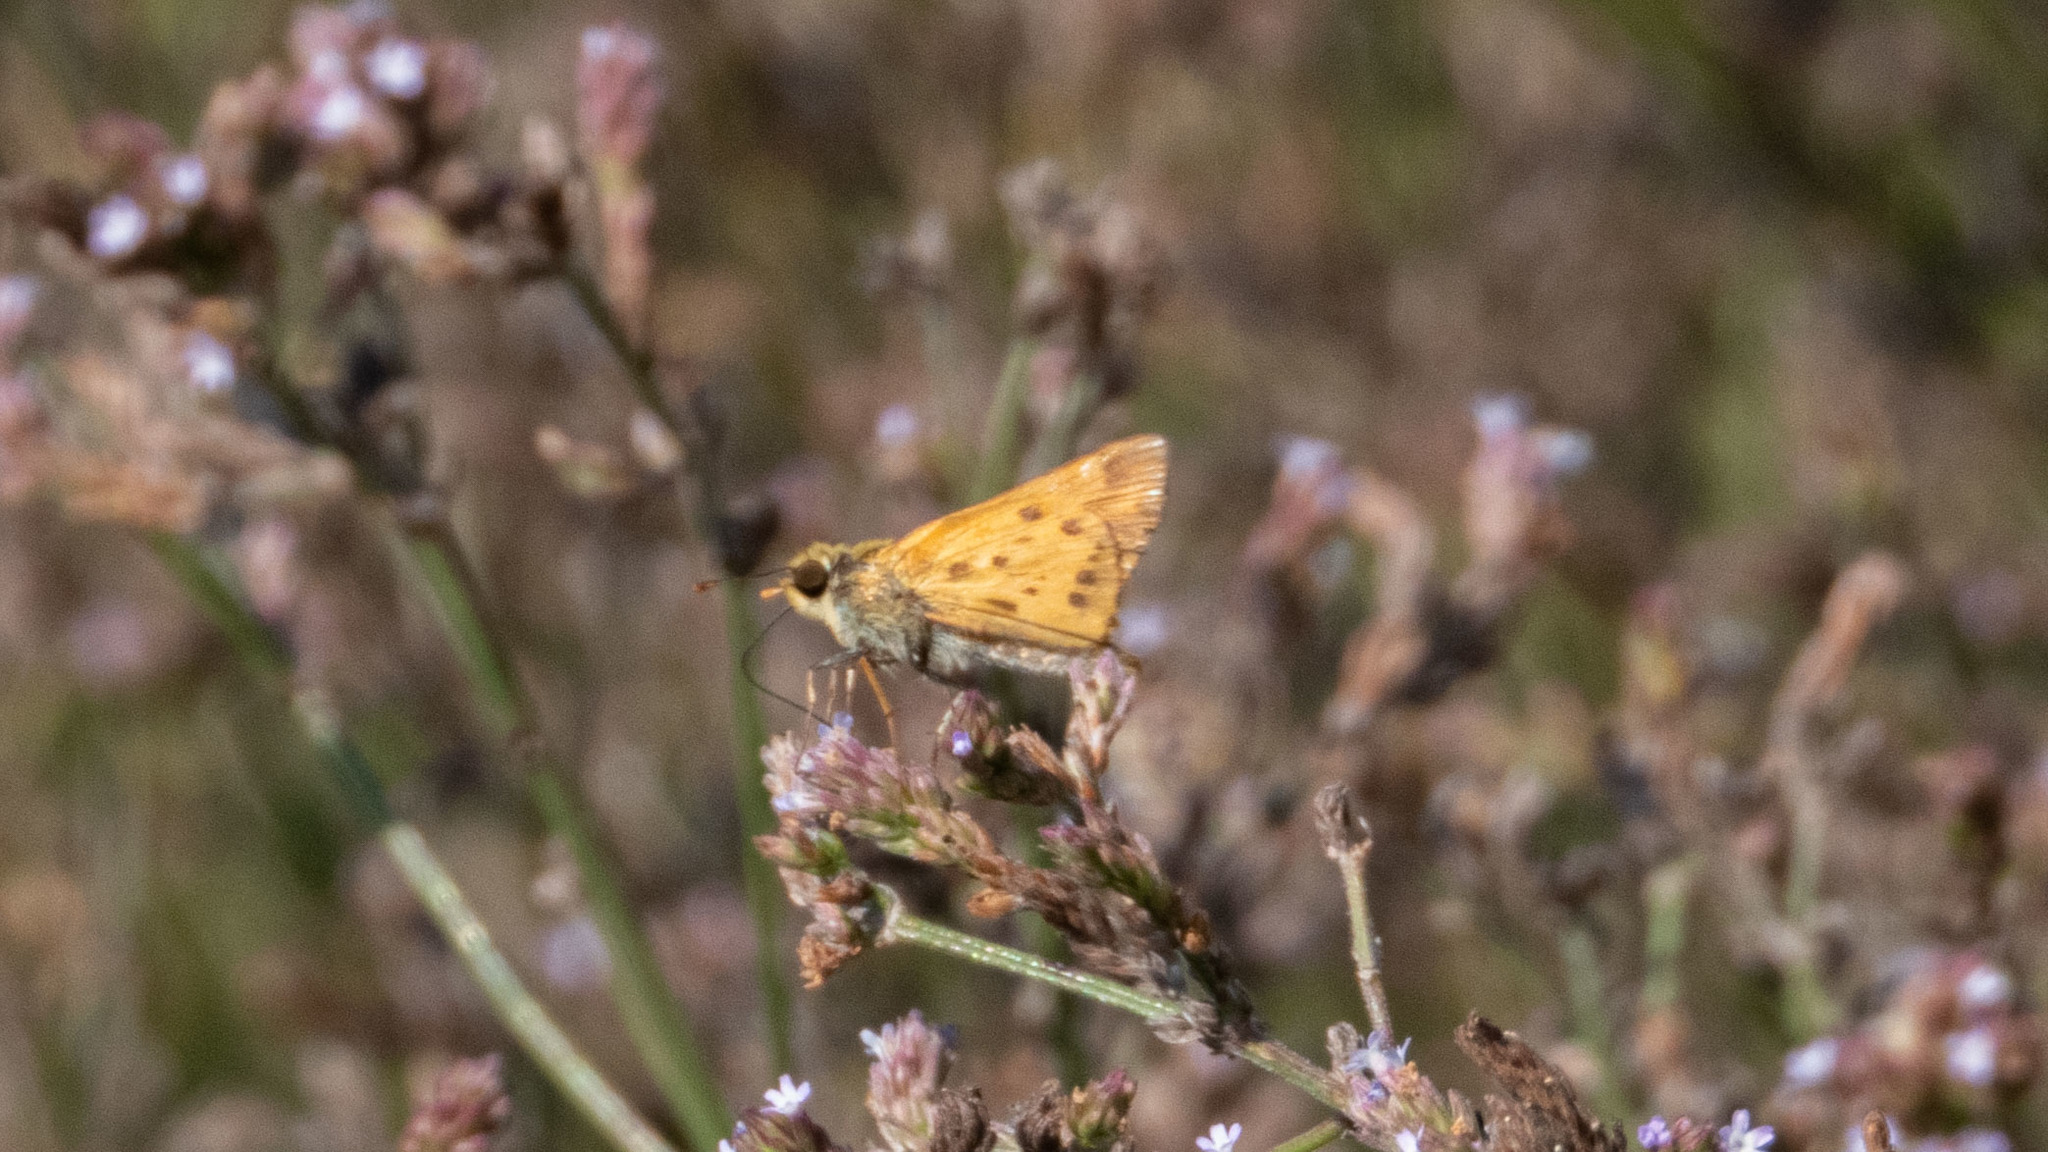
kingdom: Animalia
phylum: Arthropoda
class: Insecta
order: Lepidoptera
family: Hesperiidae
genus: Hylephila
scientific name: Hylephila phyleus
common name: Fiery skipper
